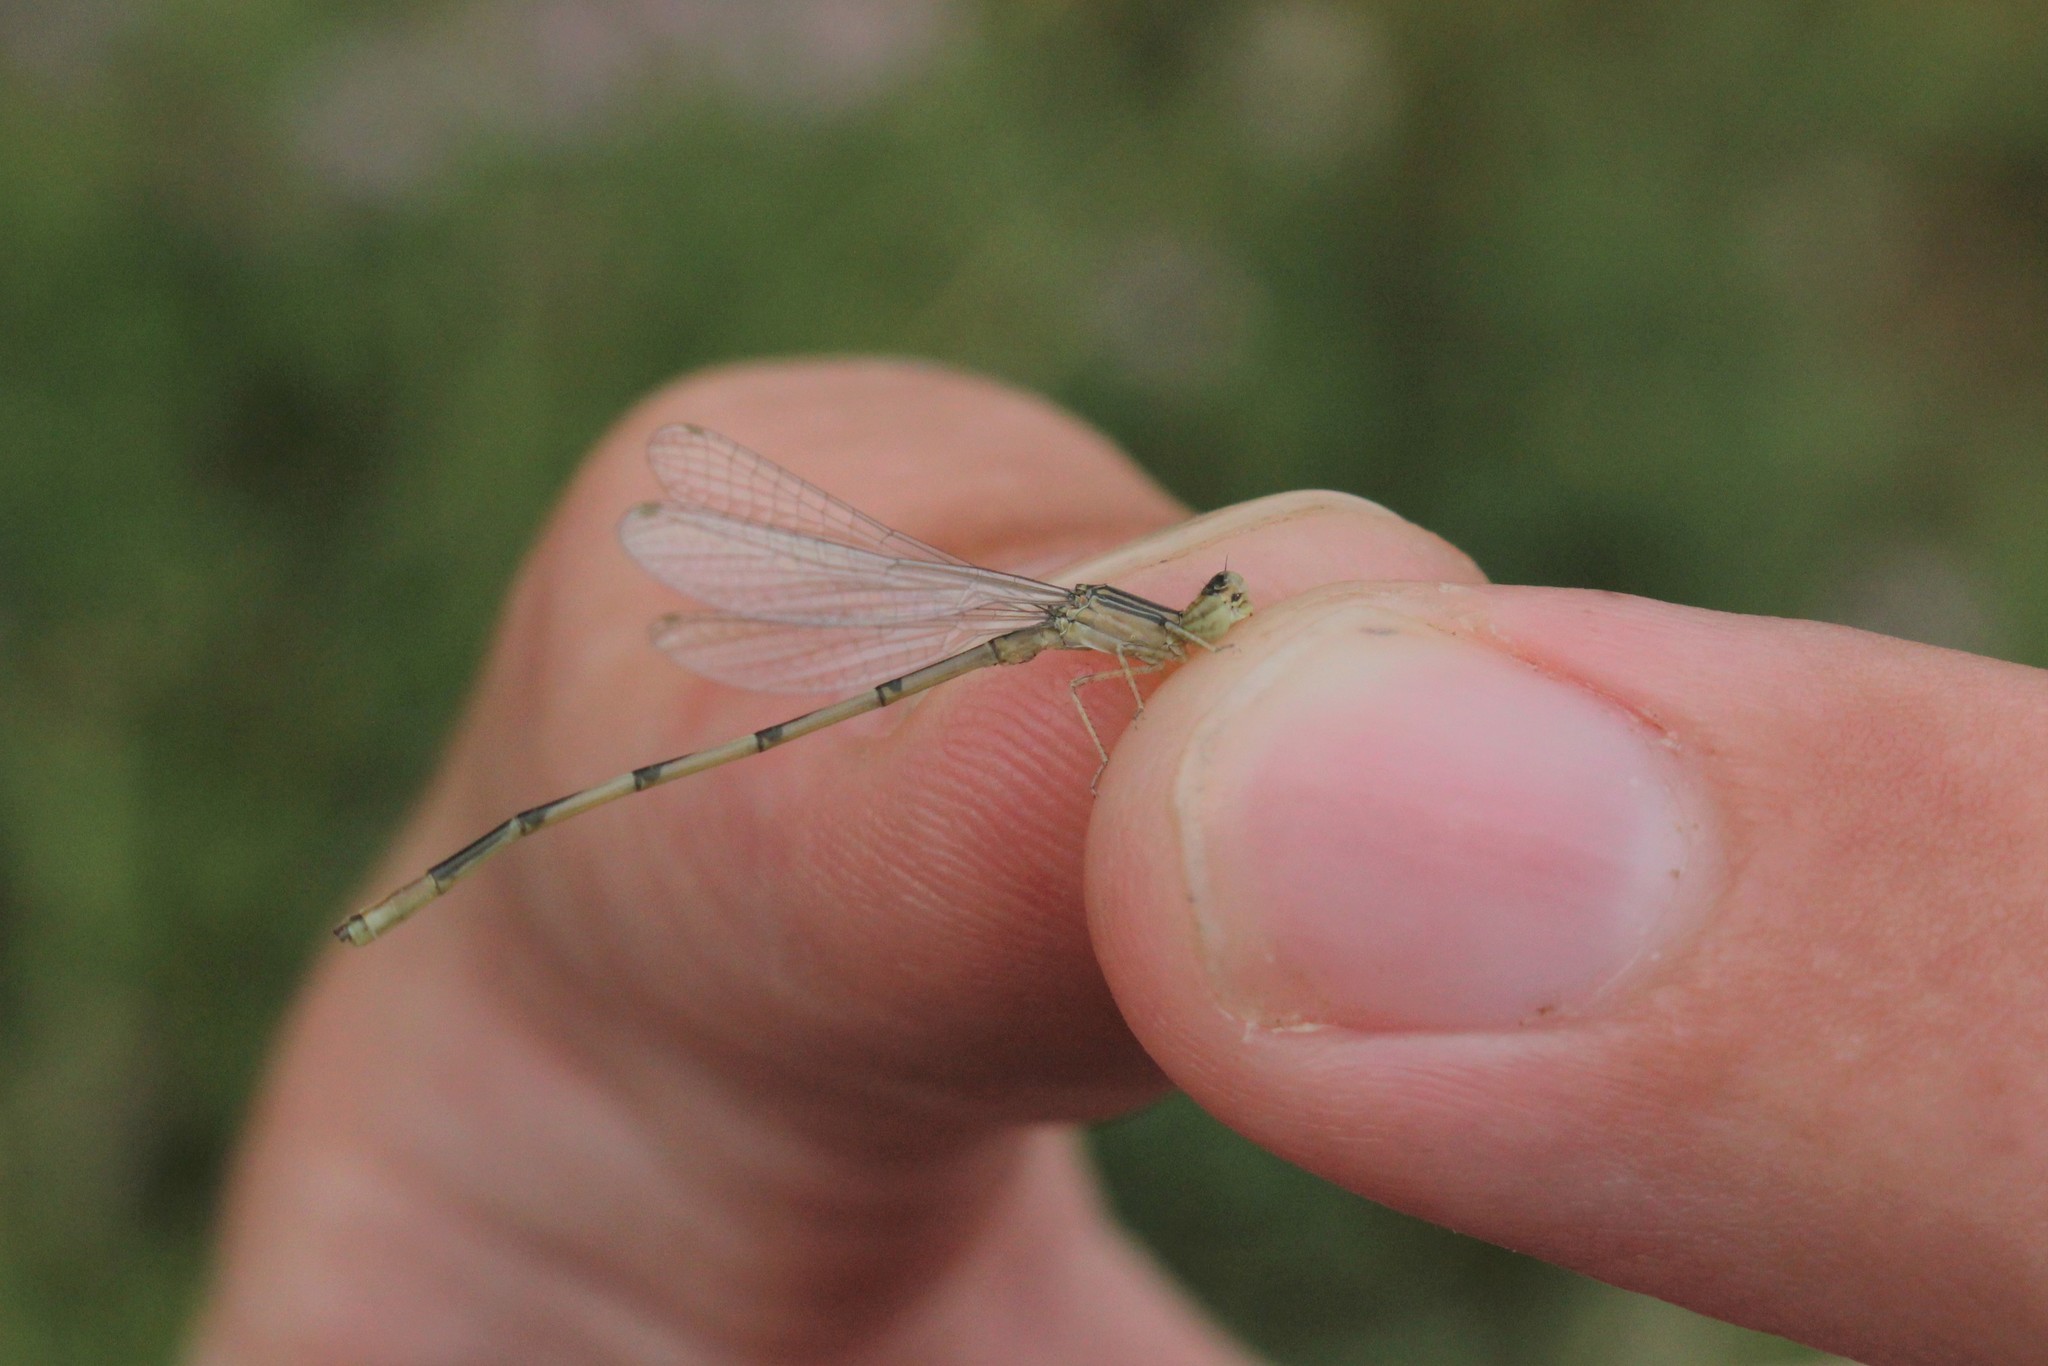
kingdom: Animalia
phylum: Arthropoda
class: Insecta
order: Odonata
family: Coenagrionidae
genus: Enallagma
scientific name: Enallagma basidens
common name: Double-striped bluet
